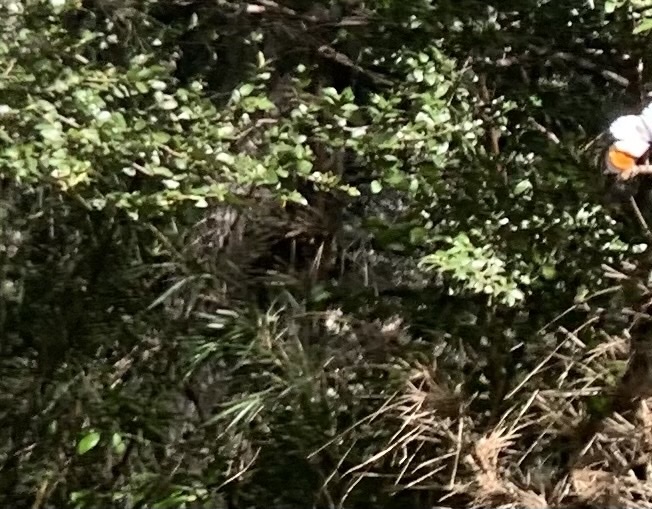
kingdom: Animalia
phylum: Arthropoda
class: Insecta
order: Lepidoptera
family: Pieridae
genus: Eroessa
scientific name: Eroessa chiliensis
